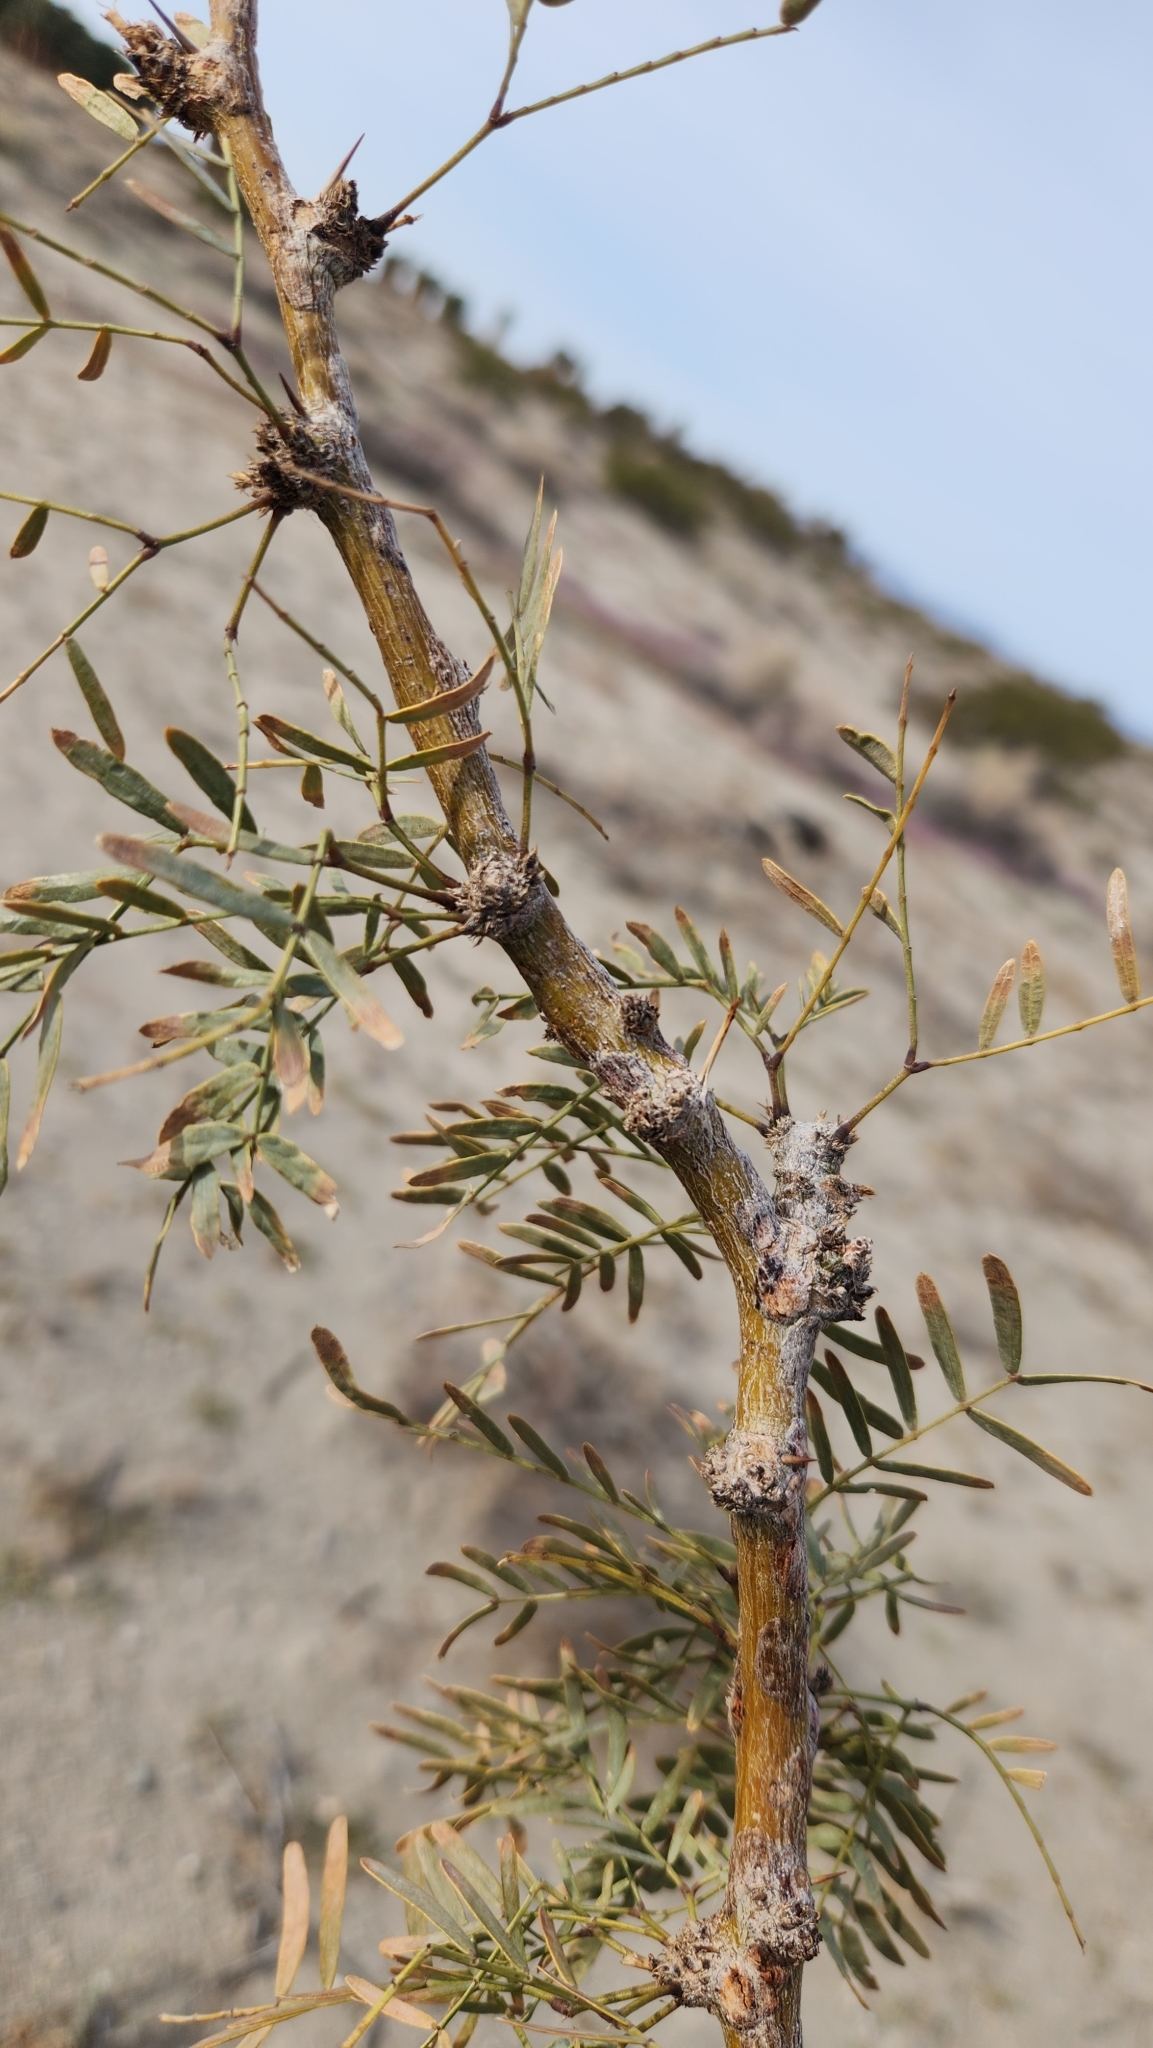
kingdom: Plantae
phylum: Tracheophyta
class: Magnoliopsida
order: Fabales
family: Fabaceae
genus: Prosopis
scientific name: Prosopis pubescens
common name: Screw-bean
